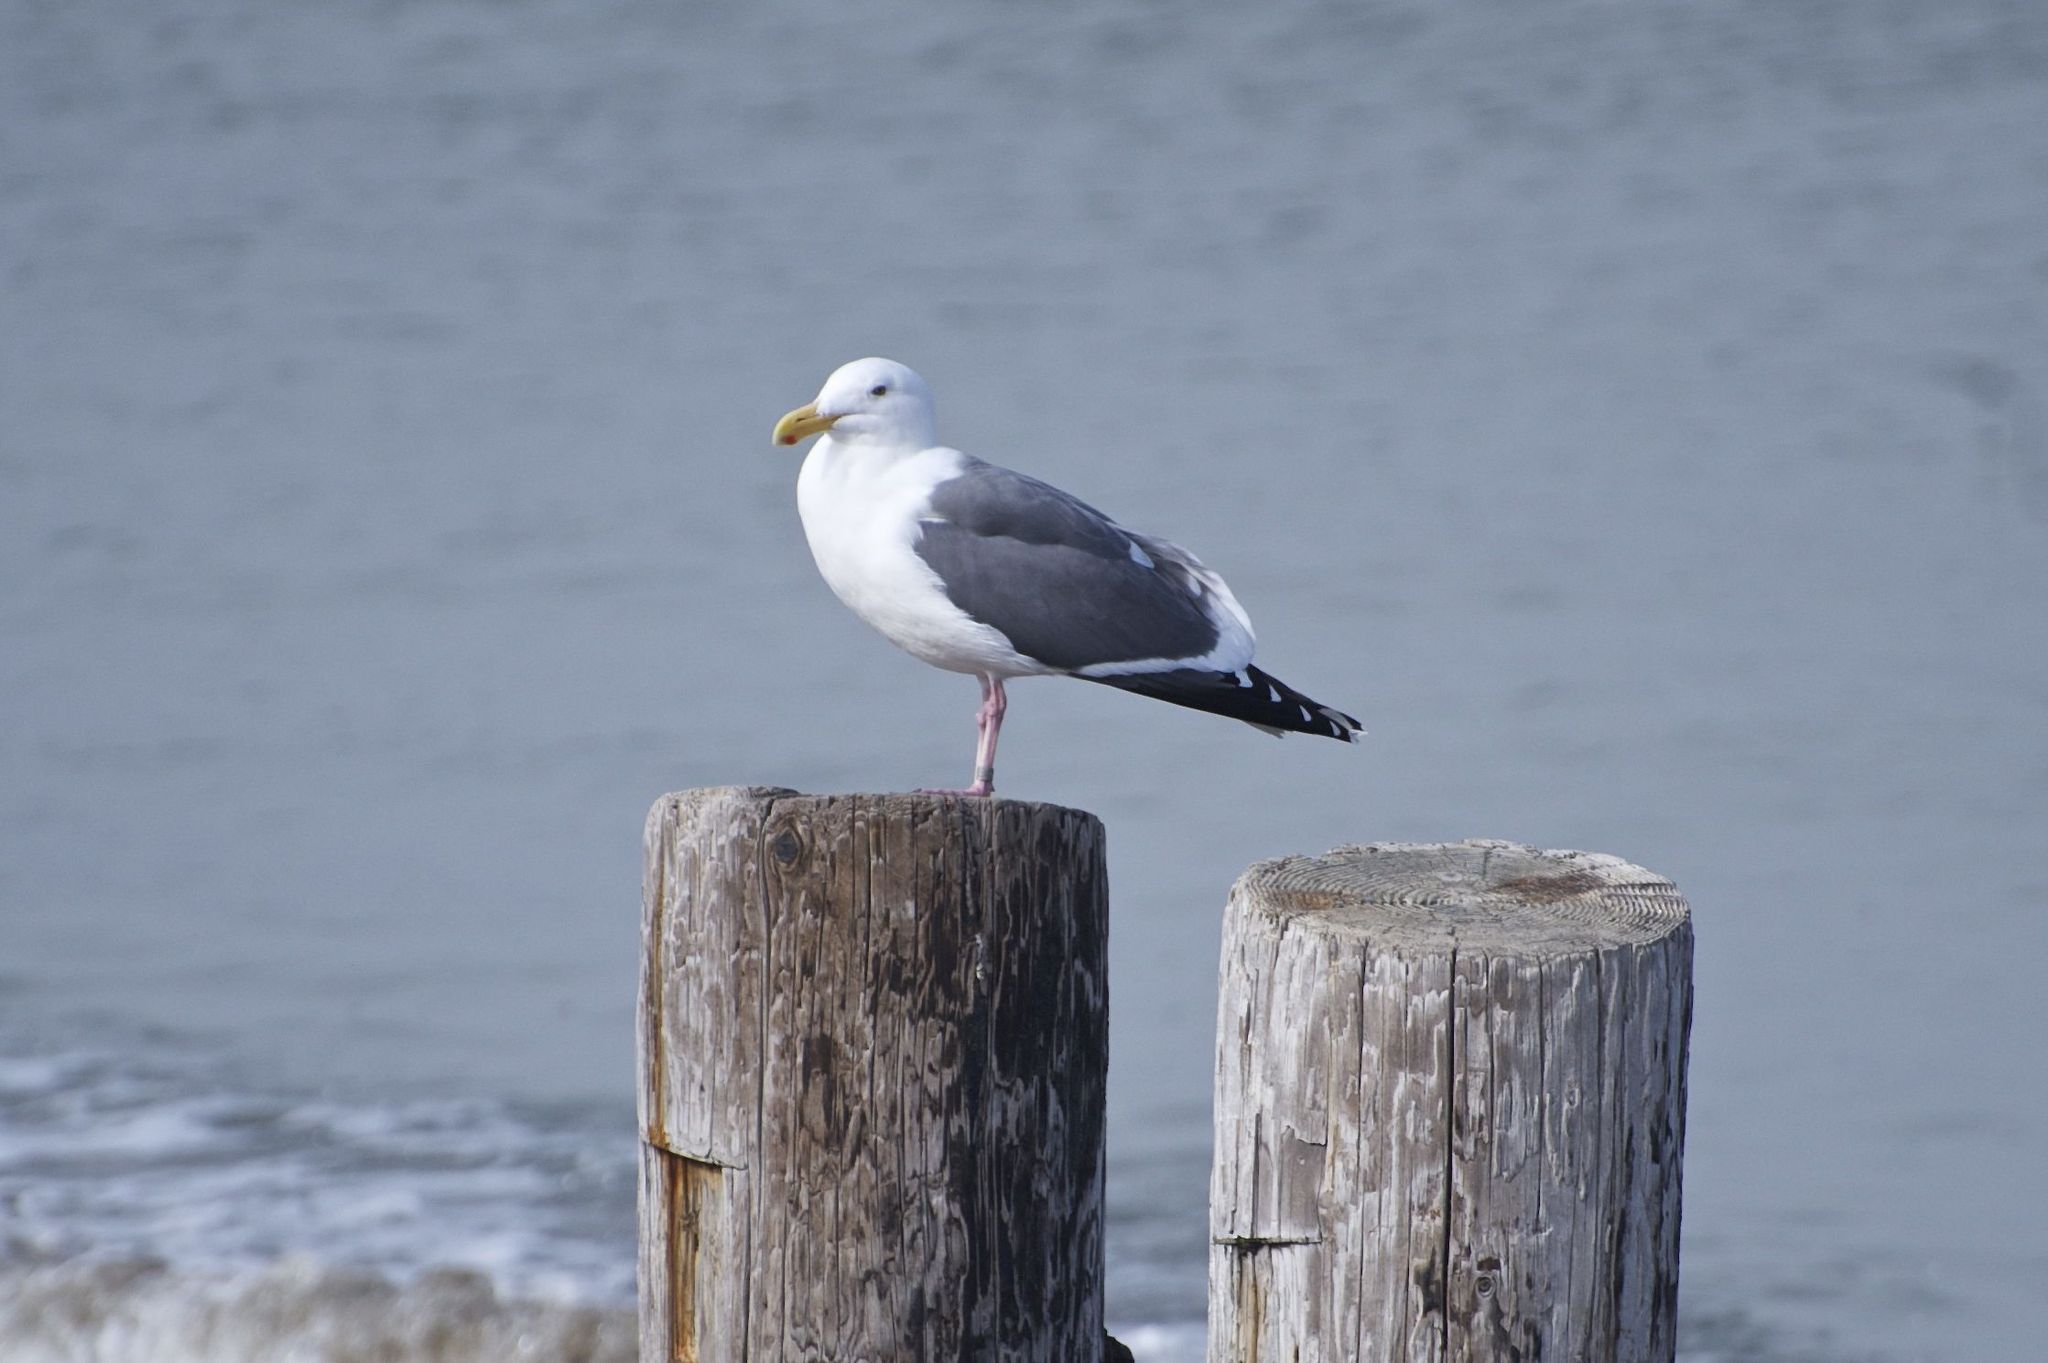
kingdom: Animalia
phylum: Chordata
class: Aves
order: Charadriiformes
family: Laridae
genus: Larus
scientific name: Larus occidentalis
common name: Western gull
